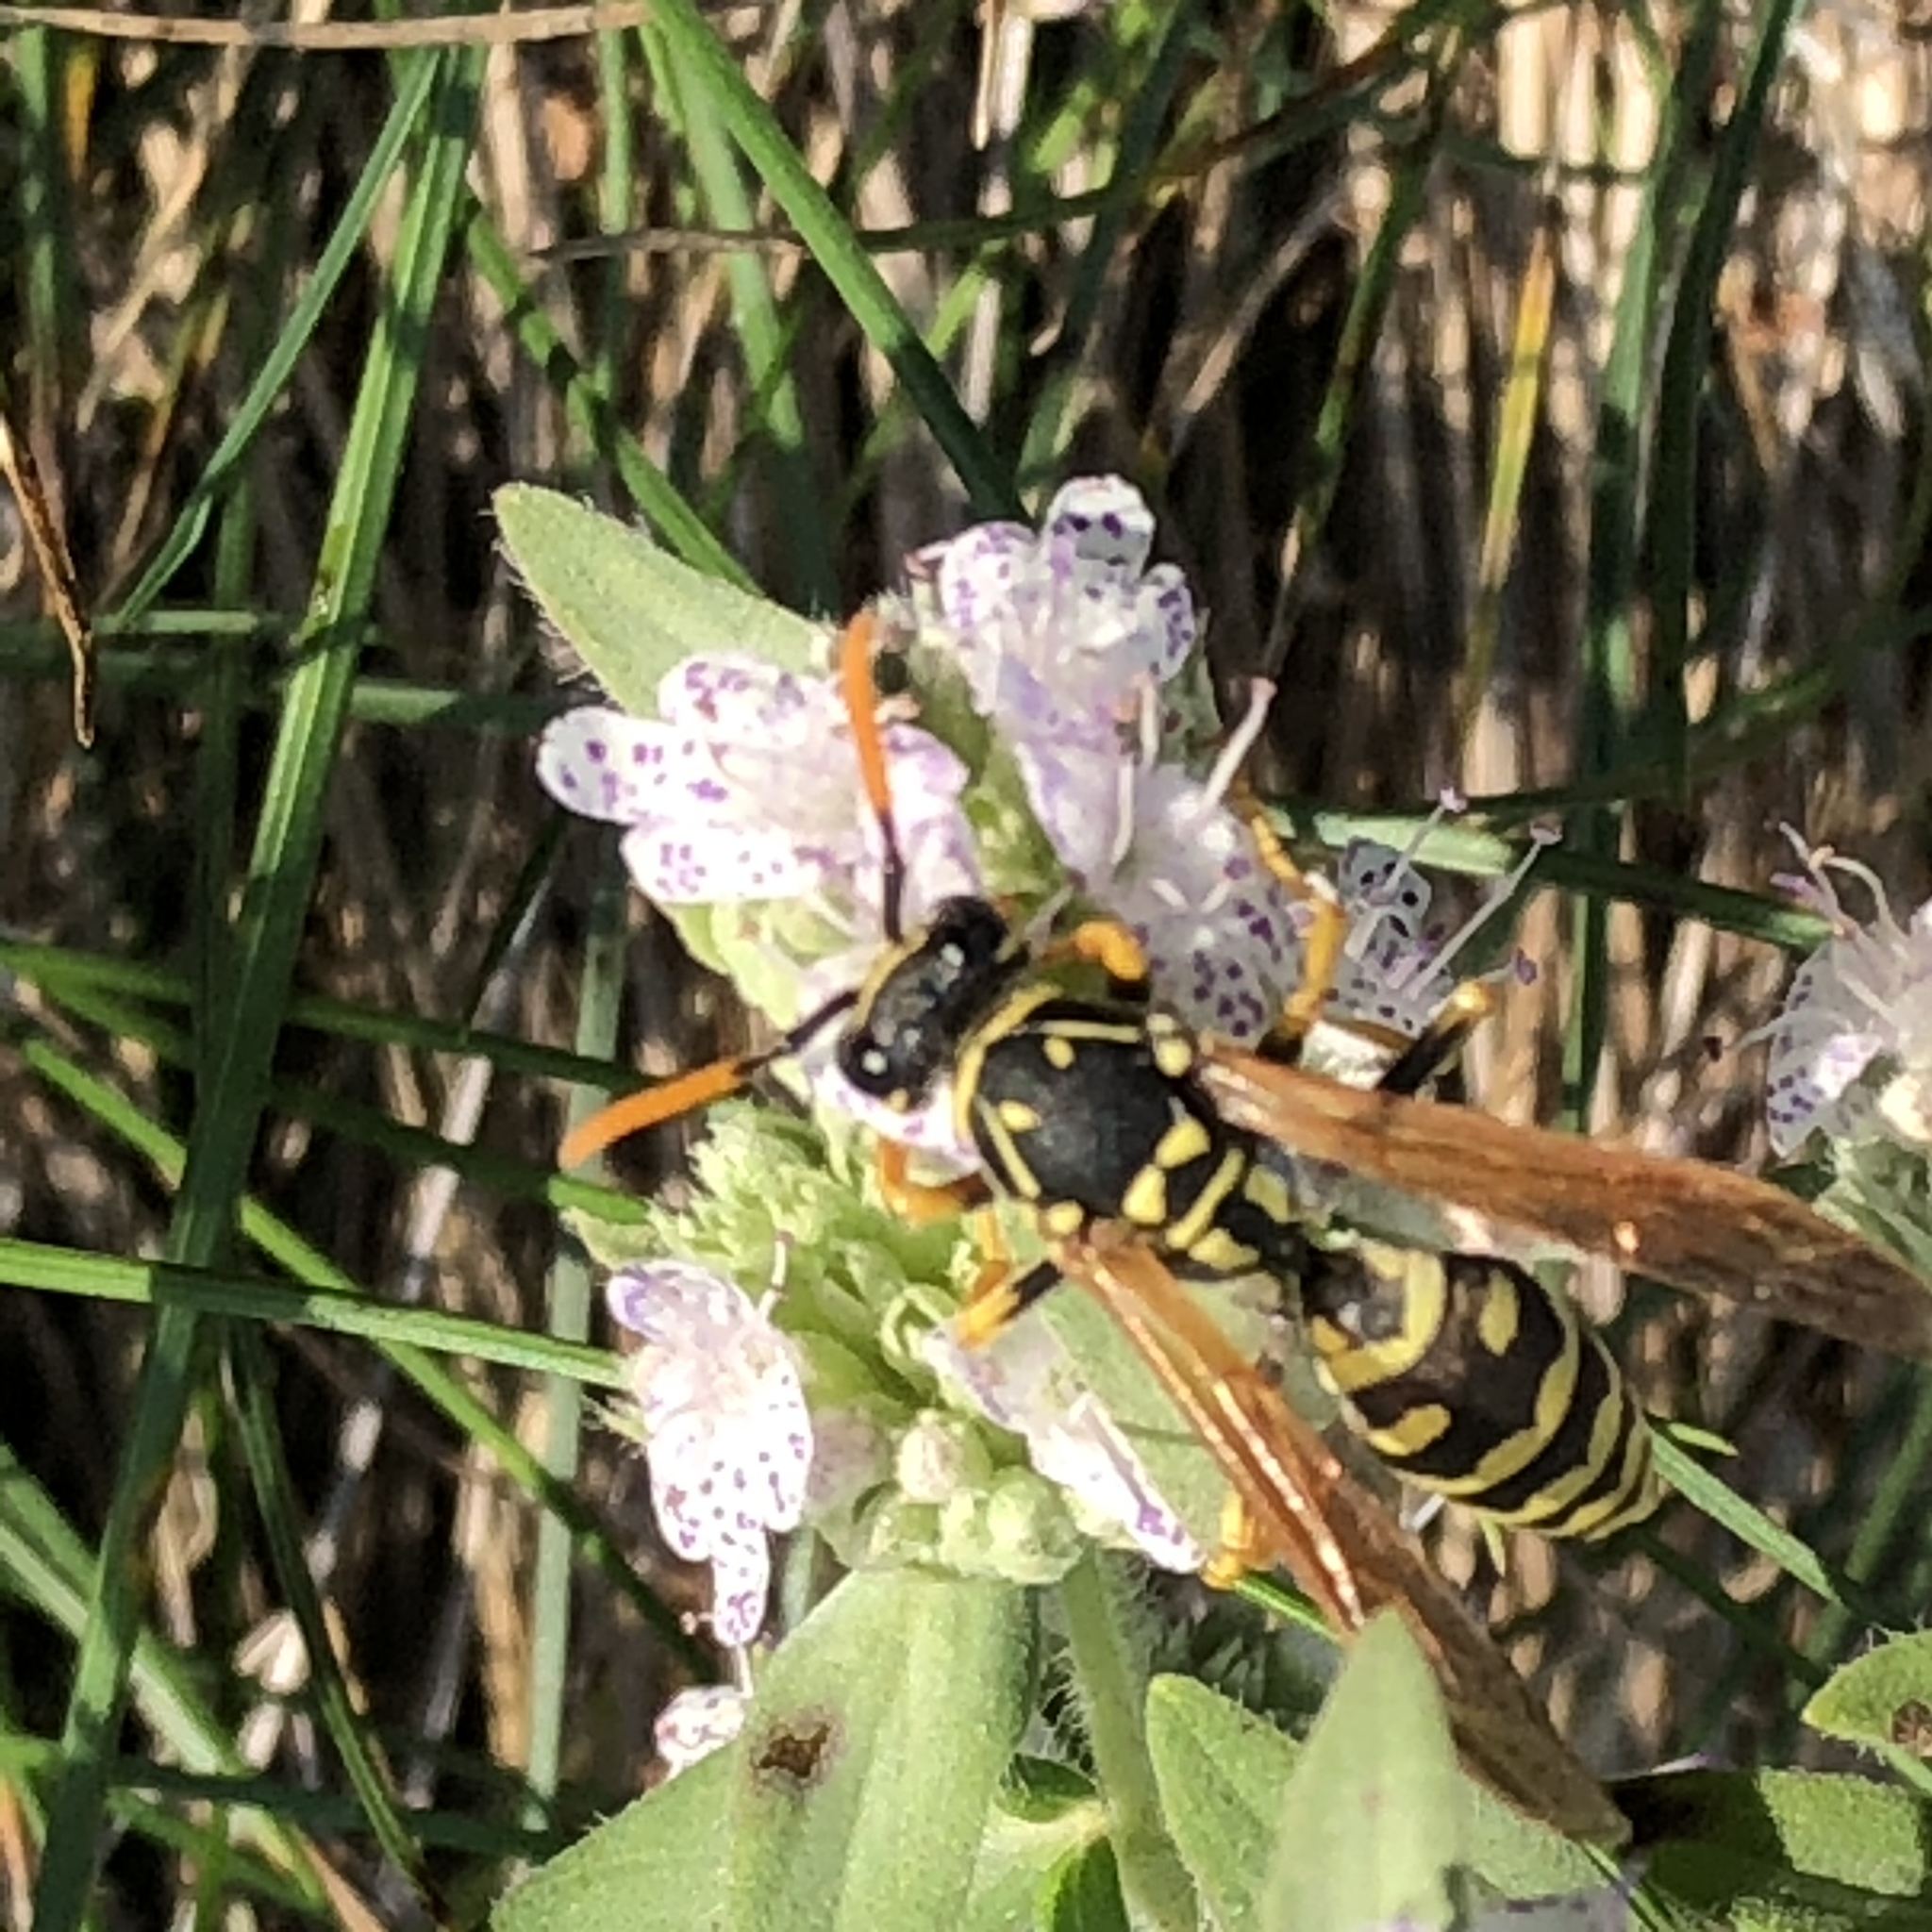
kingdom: Animalia
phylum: Arthropoda
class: Insecta
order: Hymenoptera
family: Eumenidae
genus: Polistes
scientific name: Polistes dominula
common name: Paper wasp
